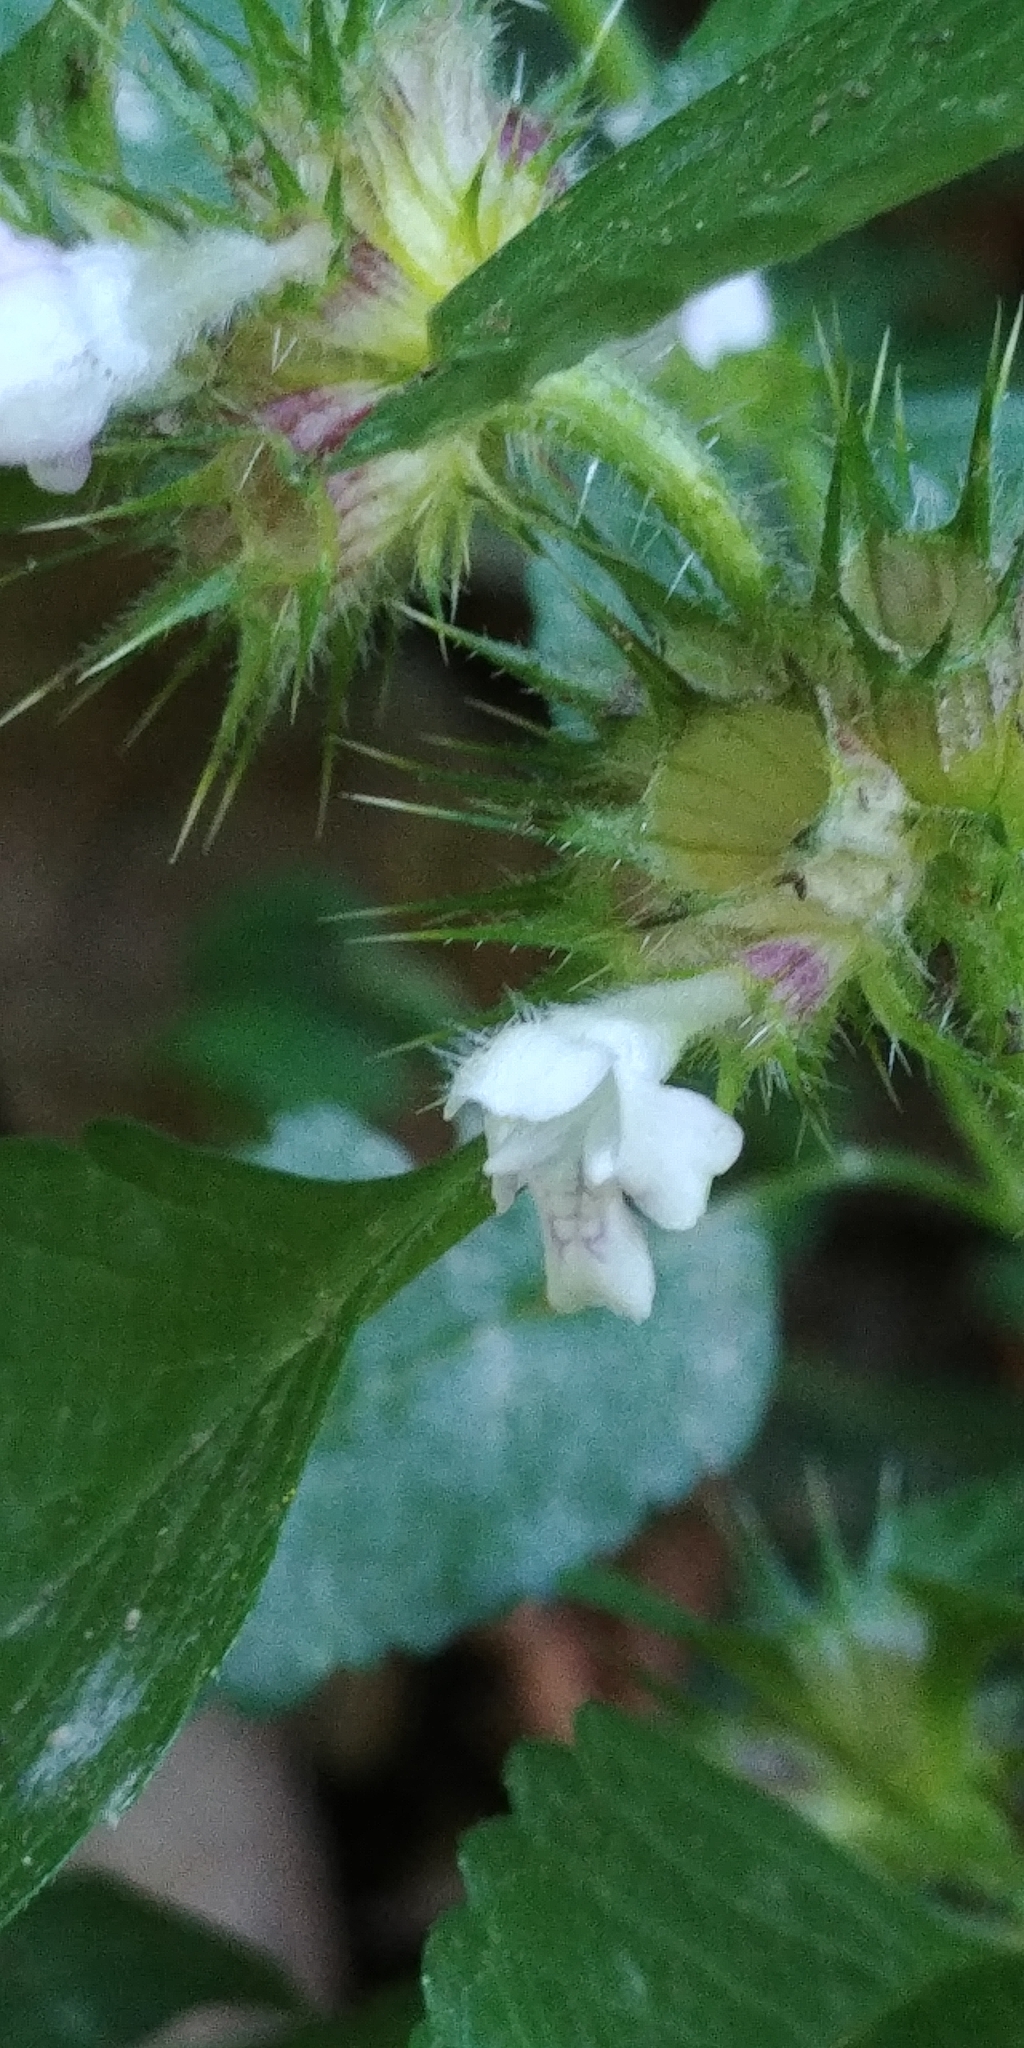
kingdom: Plantae
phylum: Tracheophyta
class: Magnoliopsida
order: Lamiales
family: Lamiaceae
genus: Galeopsis
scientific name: Galeopsis tetrahit
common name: Common hemp-nettle
